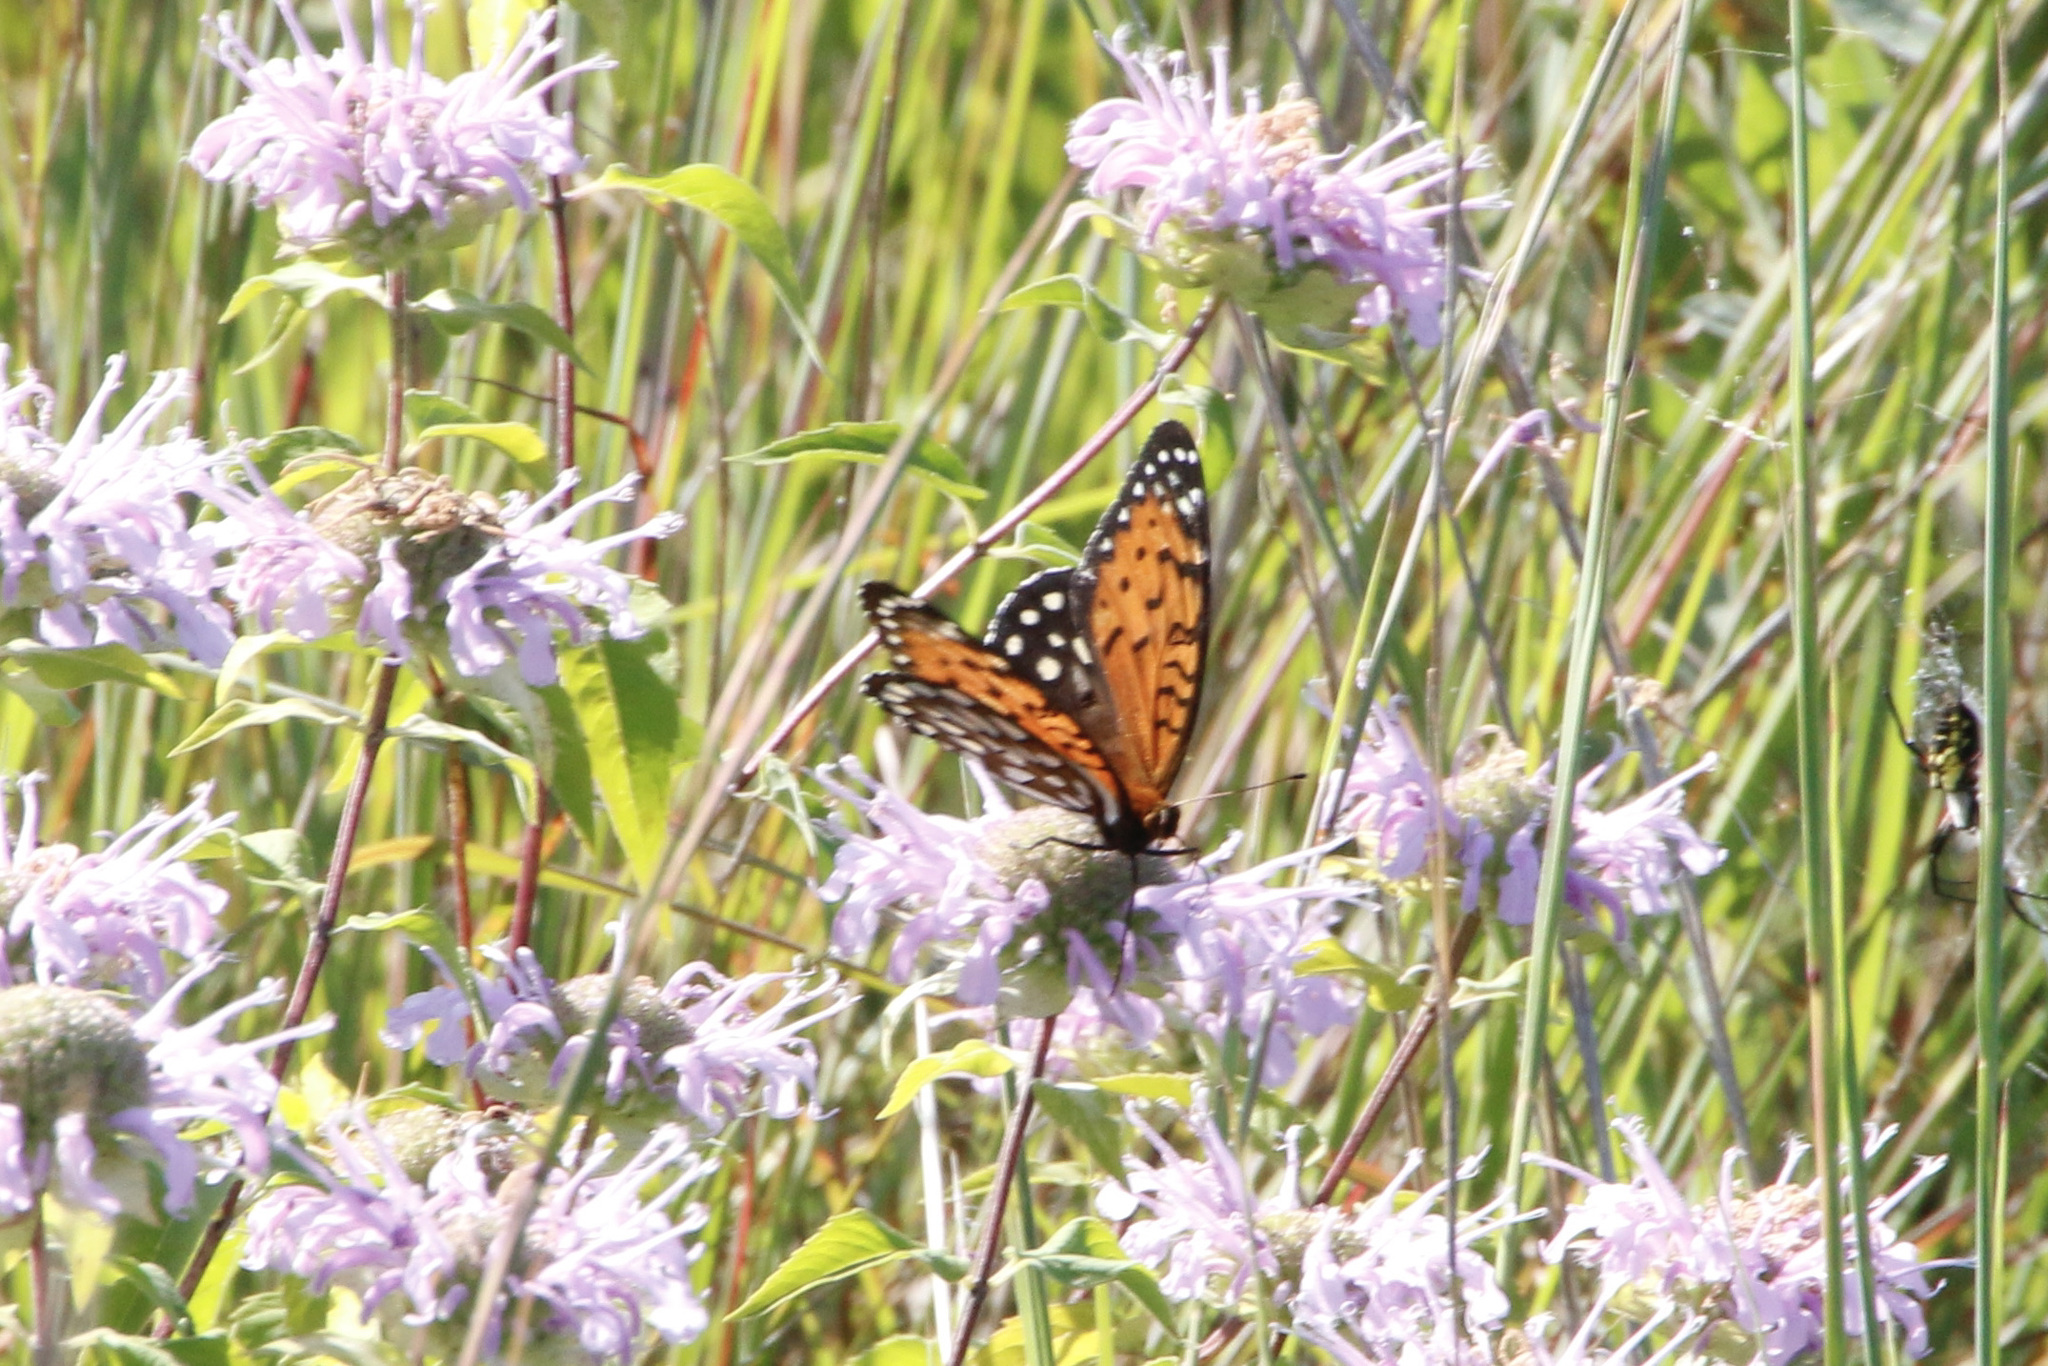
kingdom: Animalia
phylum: Arthropoda
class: Insecta
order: Lepidoptera
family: Nymphalidae
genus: Speyeria
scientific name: Speyeria idalia
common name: Regal fritillary
